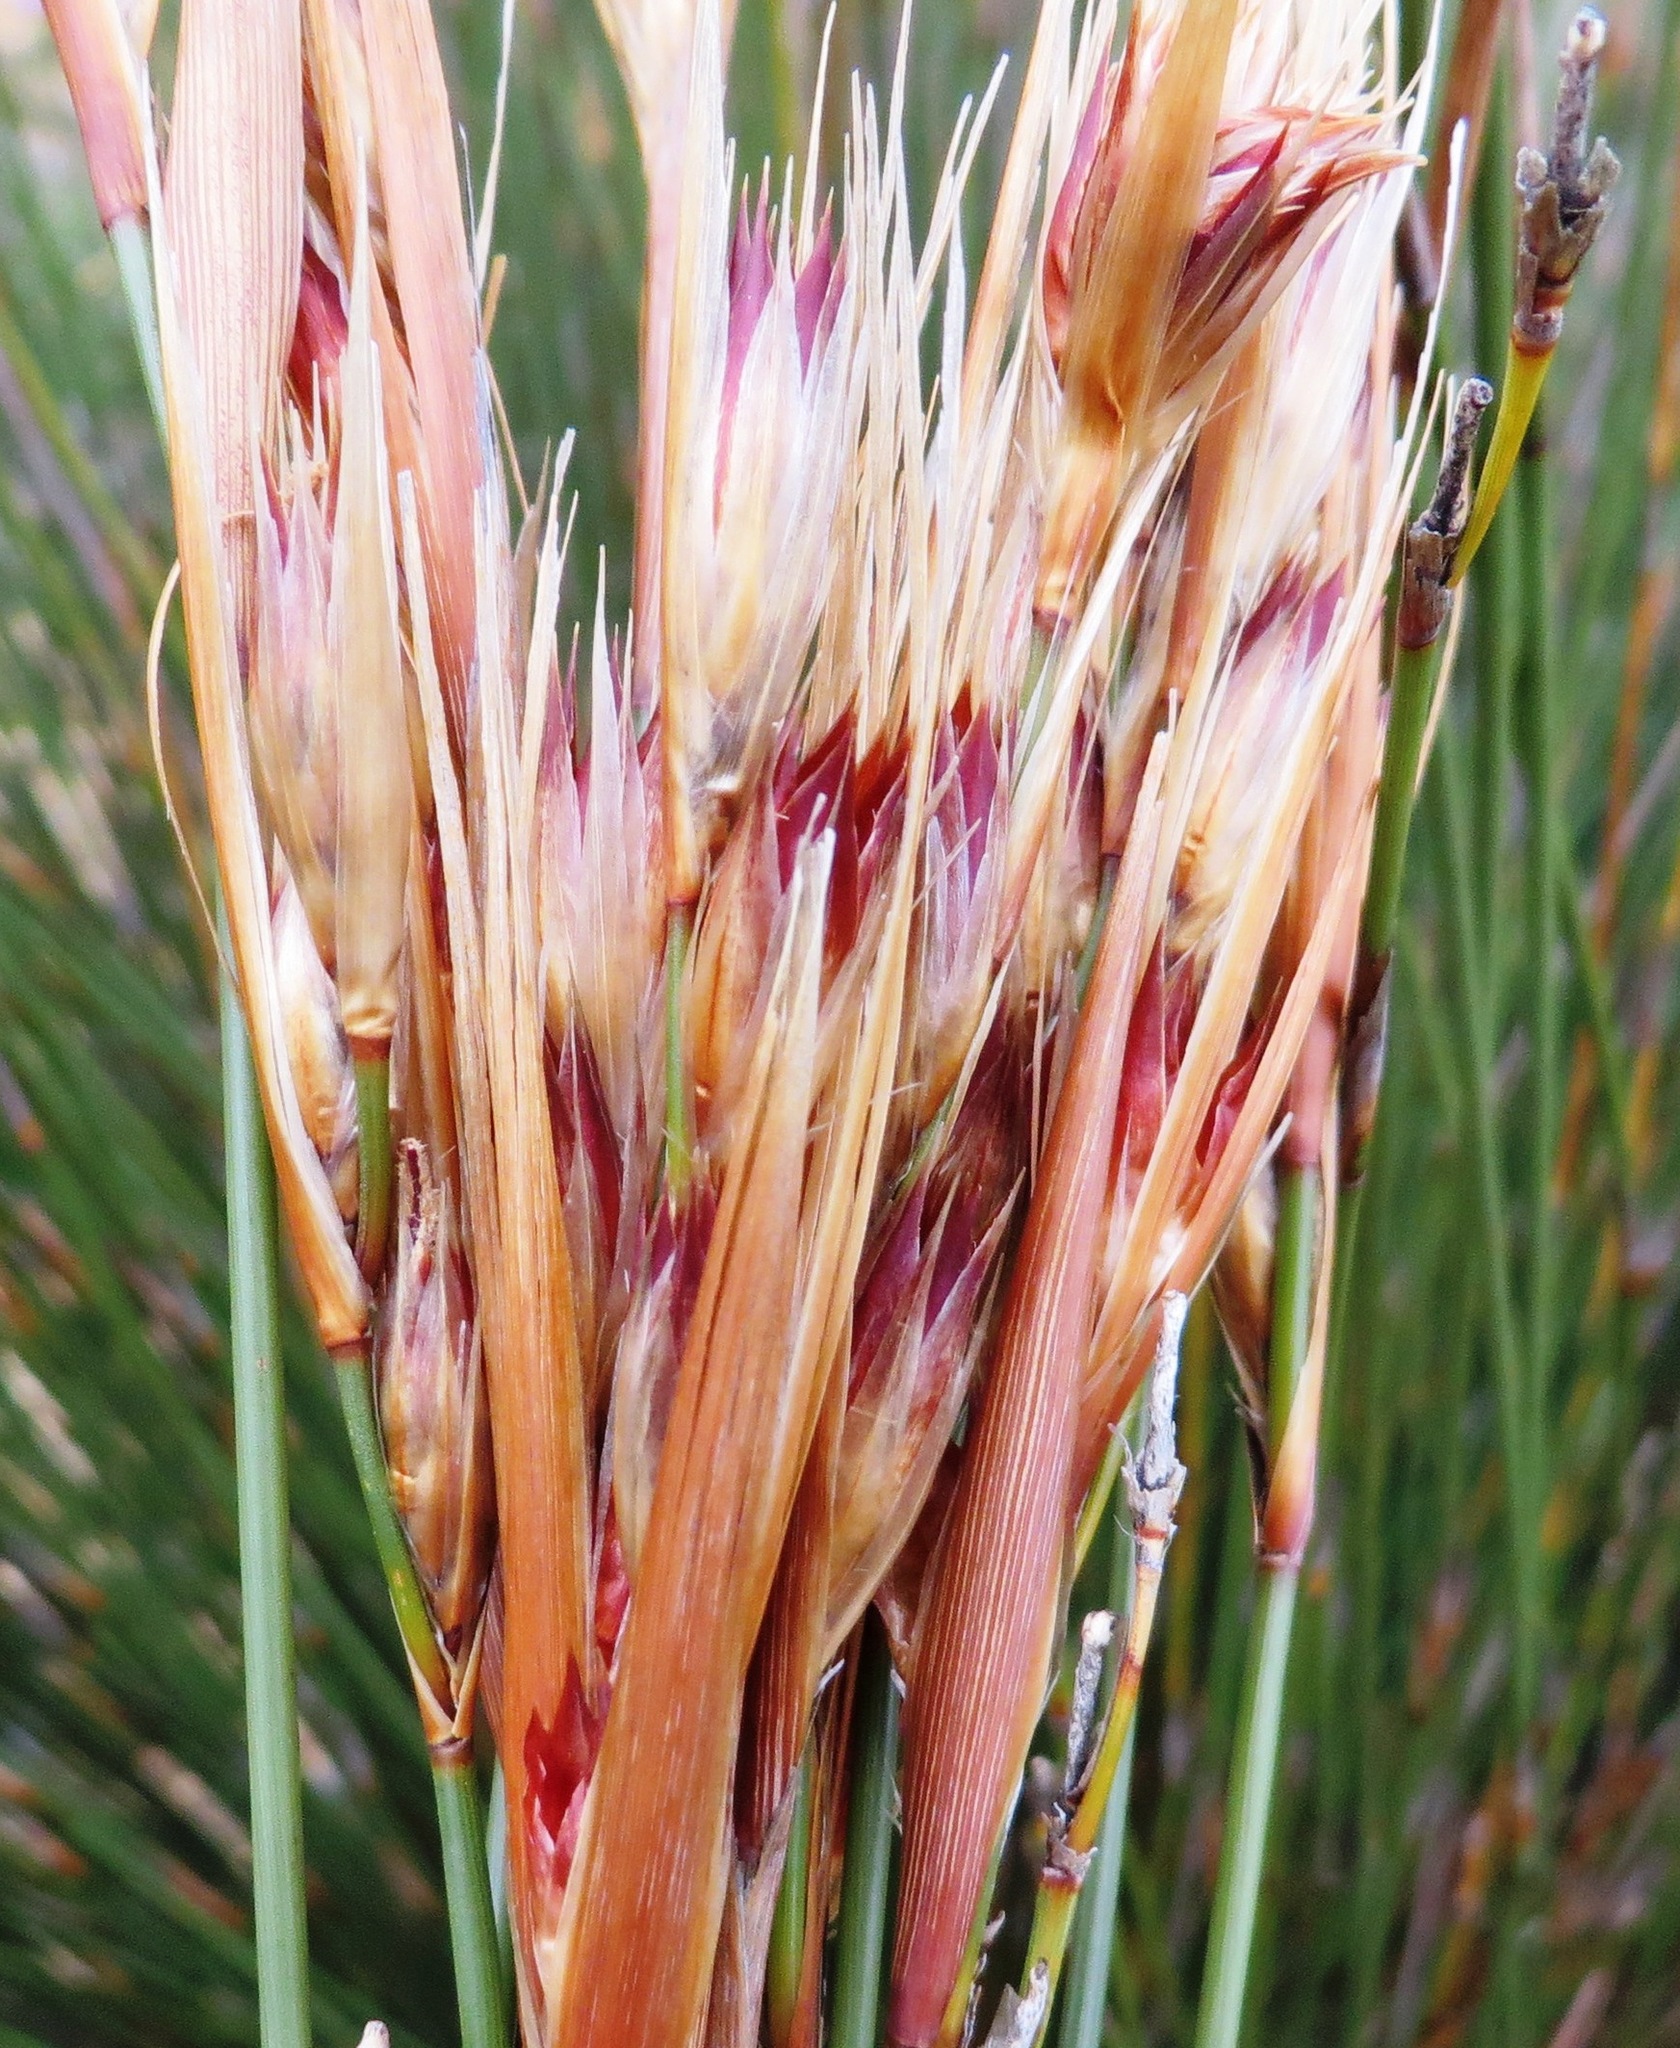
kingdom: Plantae
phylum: Tracheophyta
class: Liliopsida
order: Poales
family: Restionaceae
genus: Hypodiscus
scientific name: Hypodiscus argenteus
